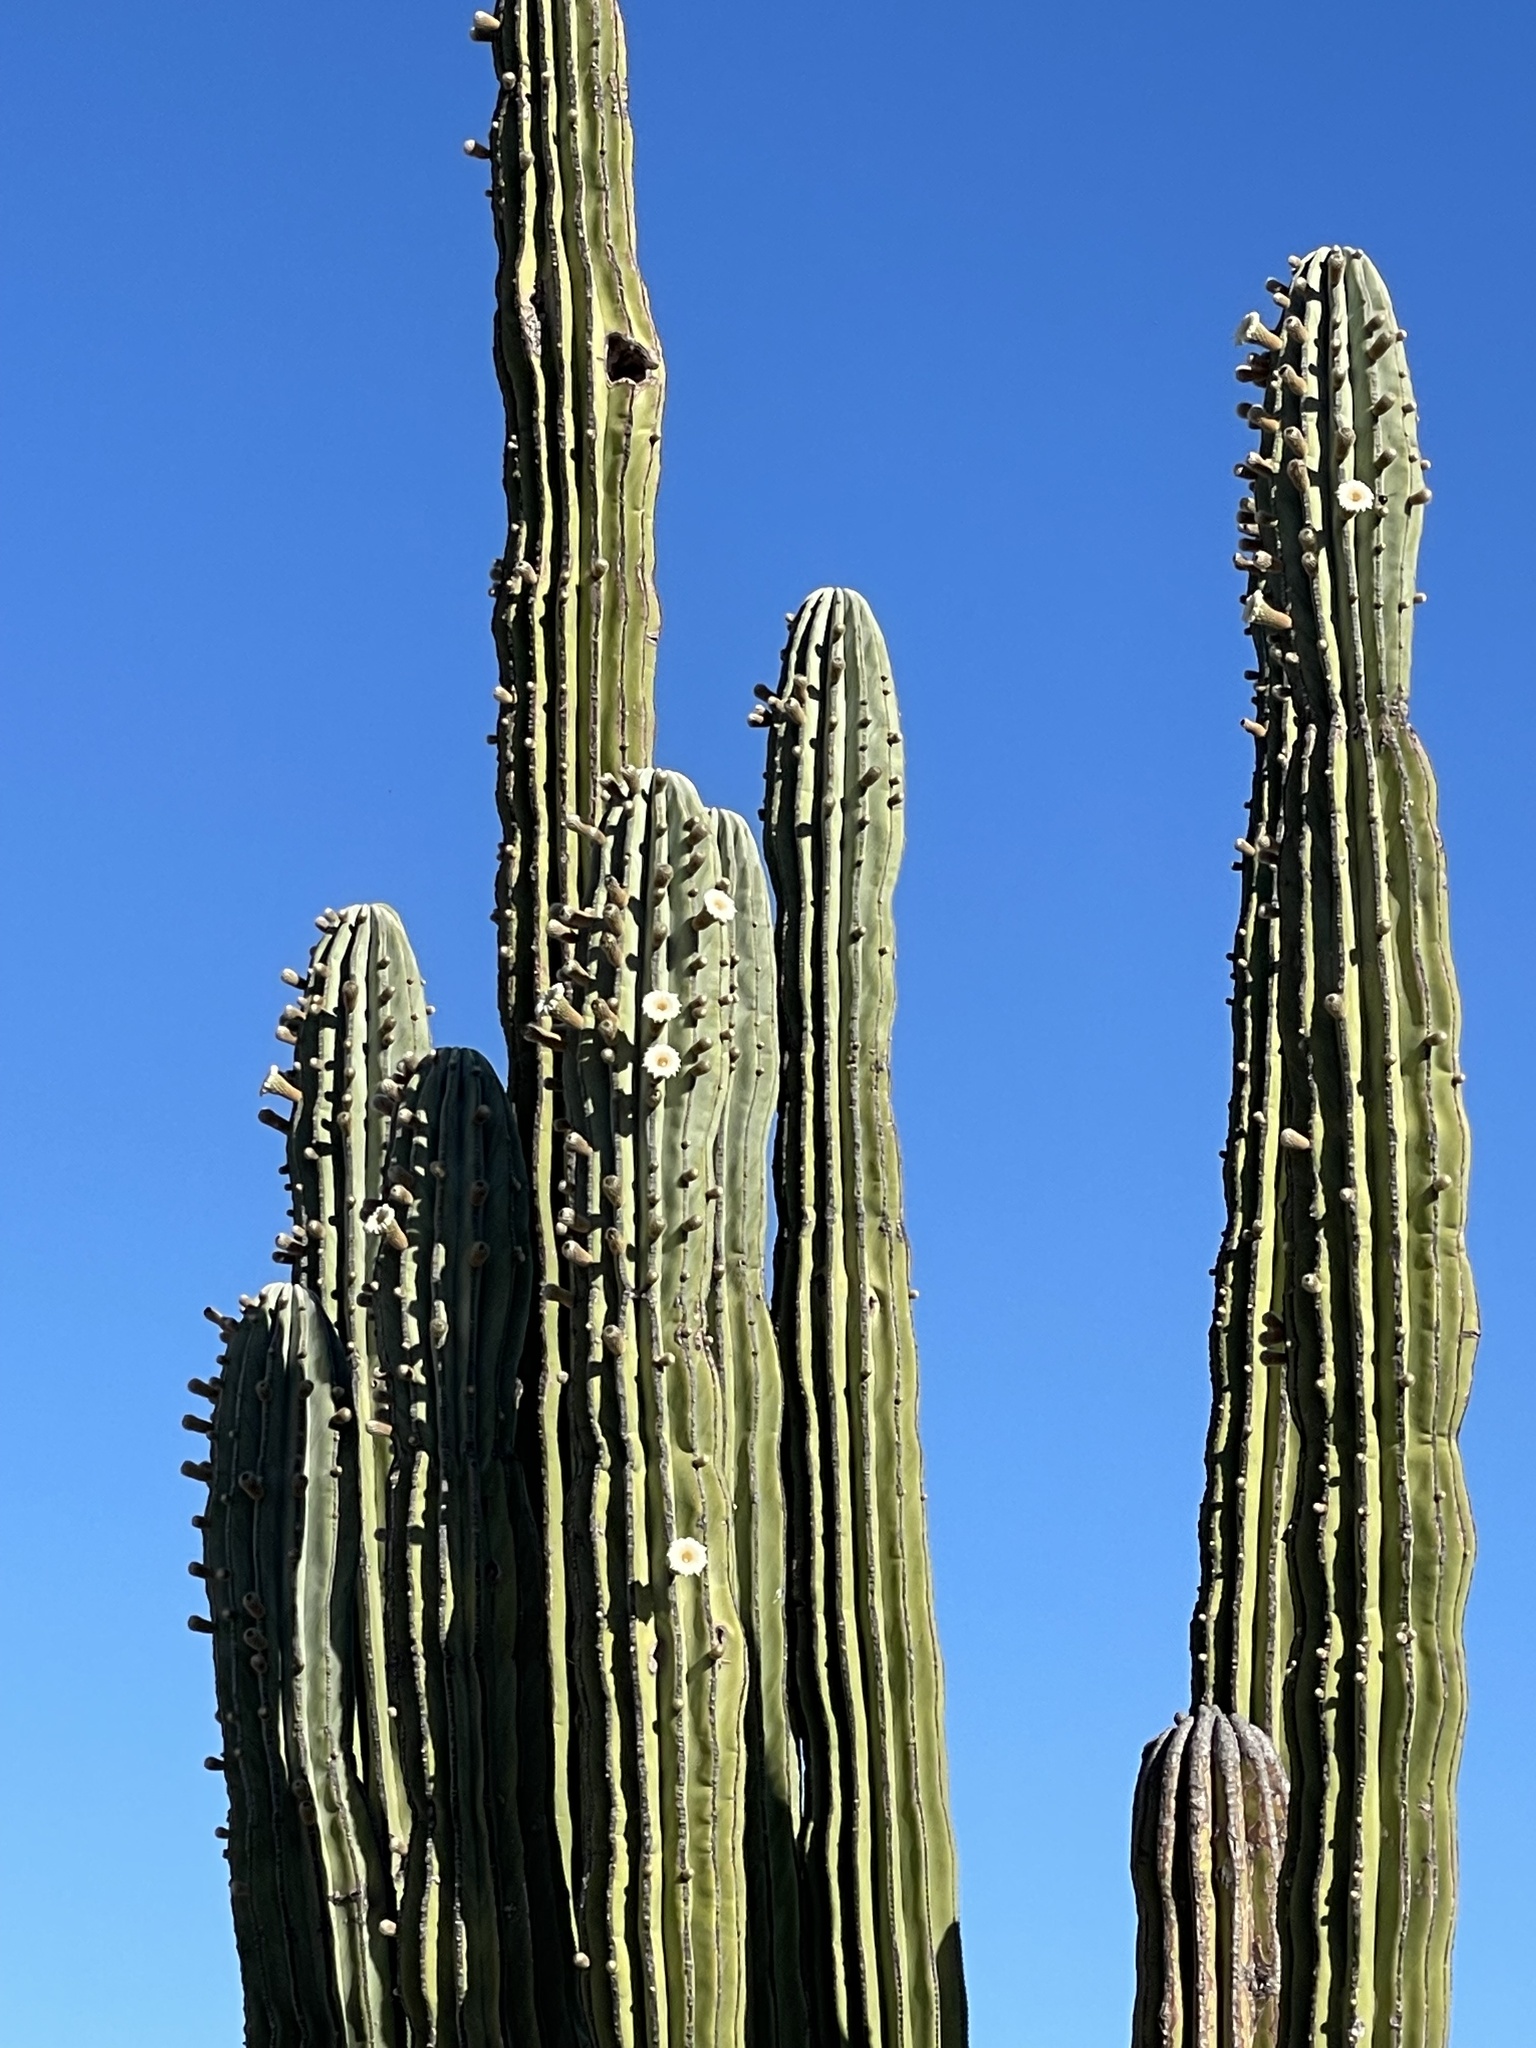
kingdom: Plantae
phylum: Tracheophyta
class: Magnoliopsida
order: Caryophyllales
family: Cactaceae
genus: Pachycereus
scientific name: Pachycereus pringlei
